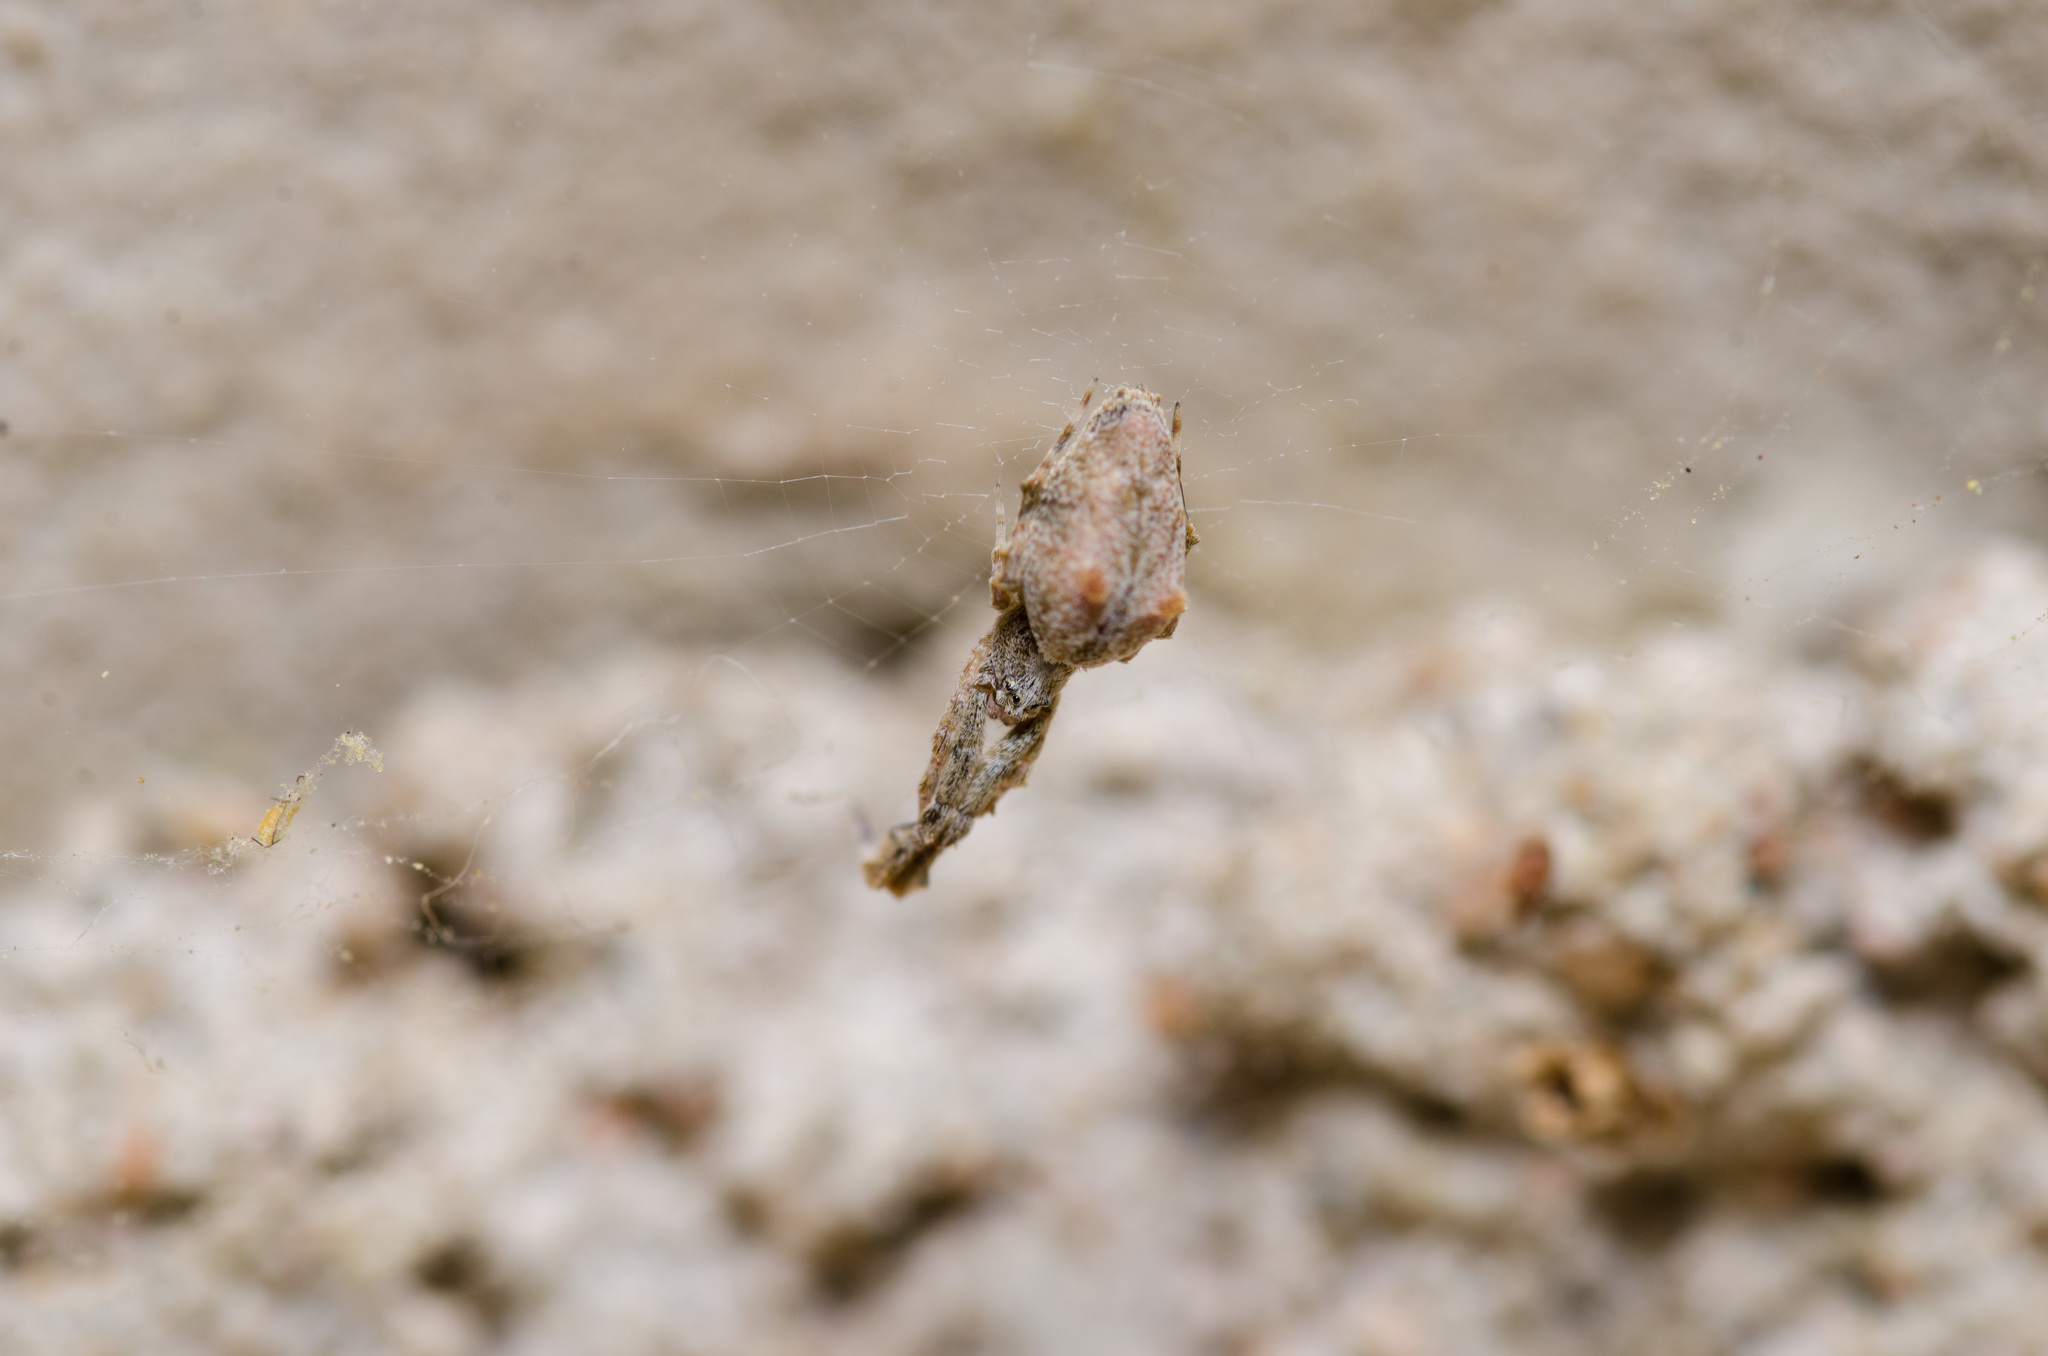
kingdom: Animalia
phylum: Arthropoda
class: Arachnida
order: Araneae
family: Uloboridae
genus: Uloborus
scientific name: Uloborus glomosus
